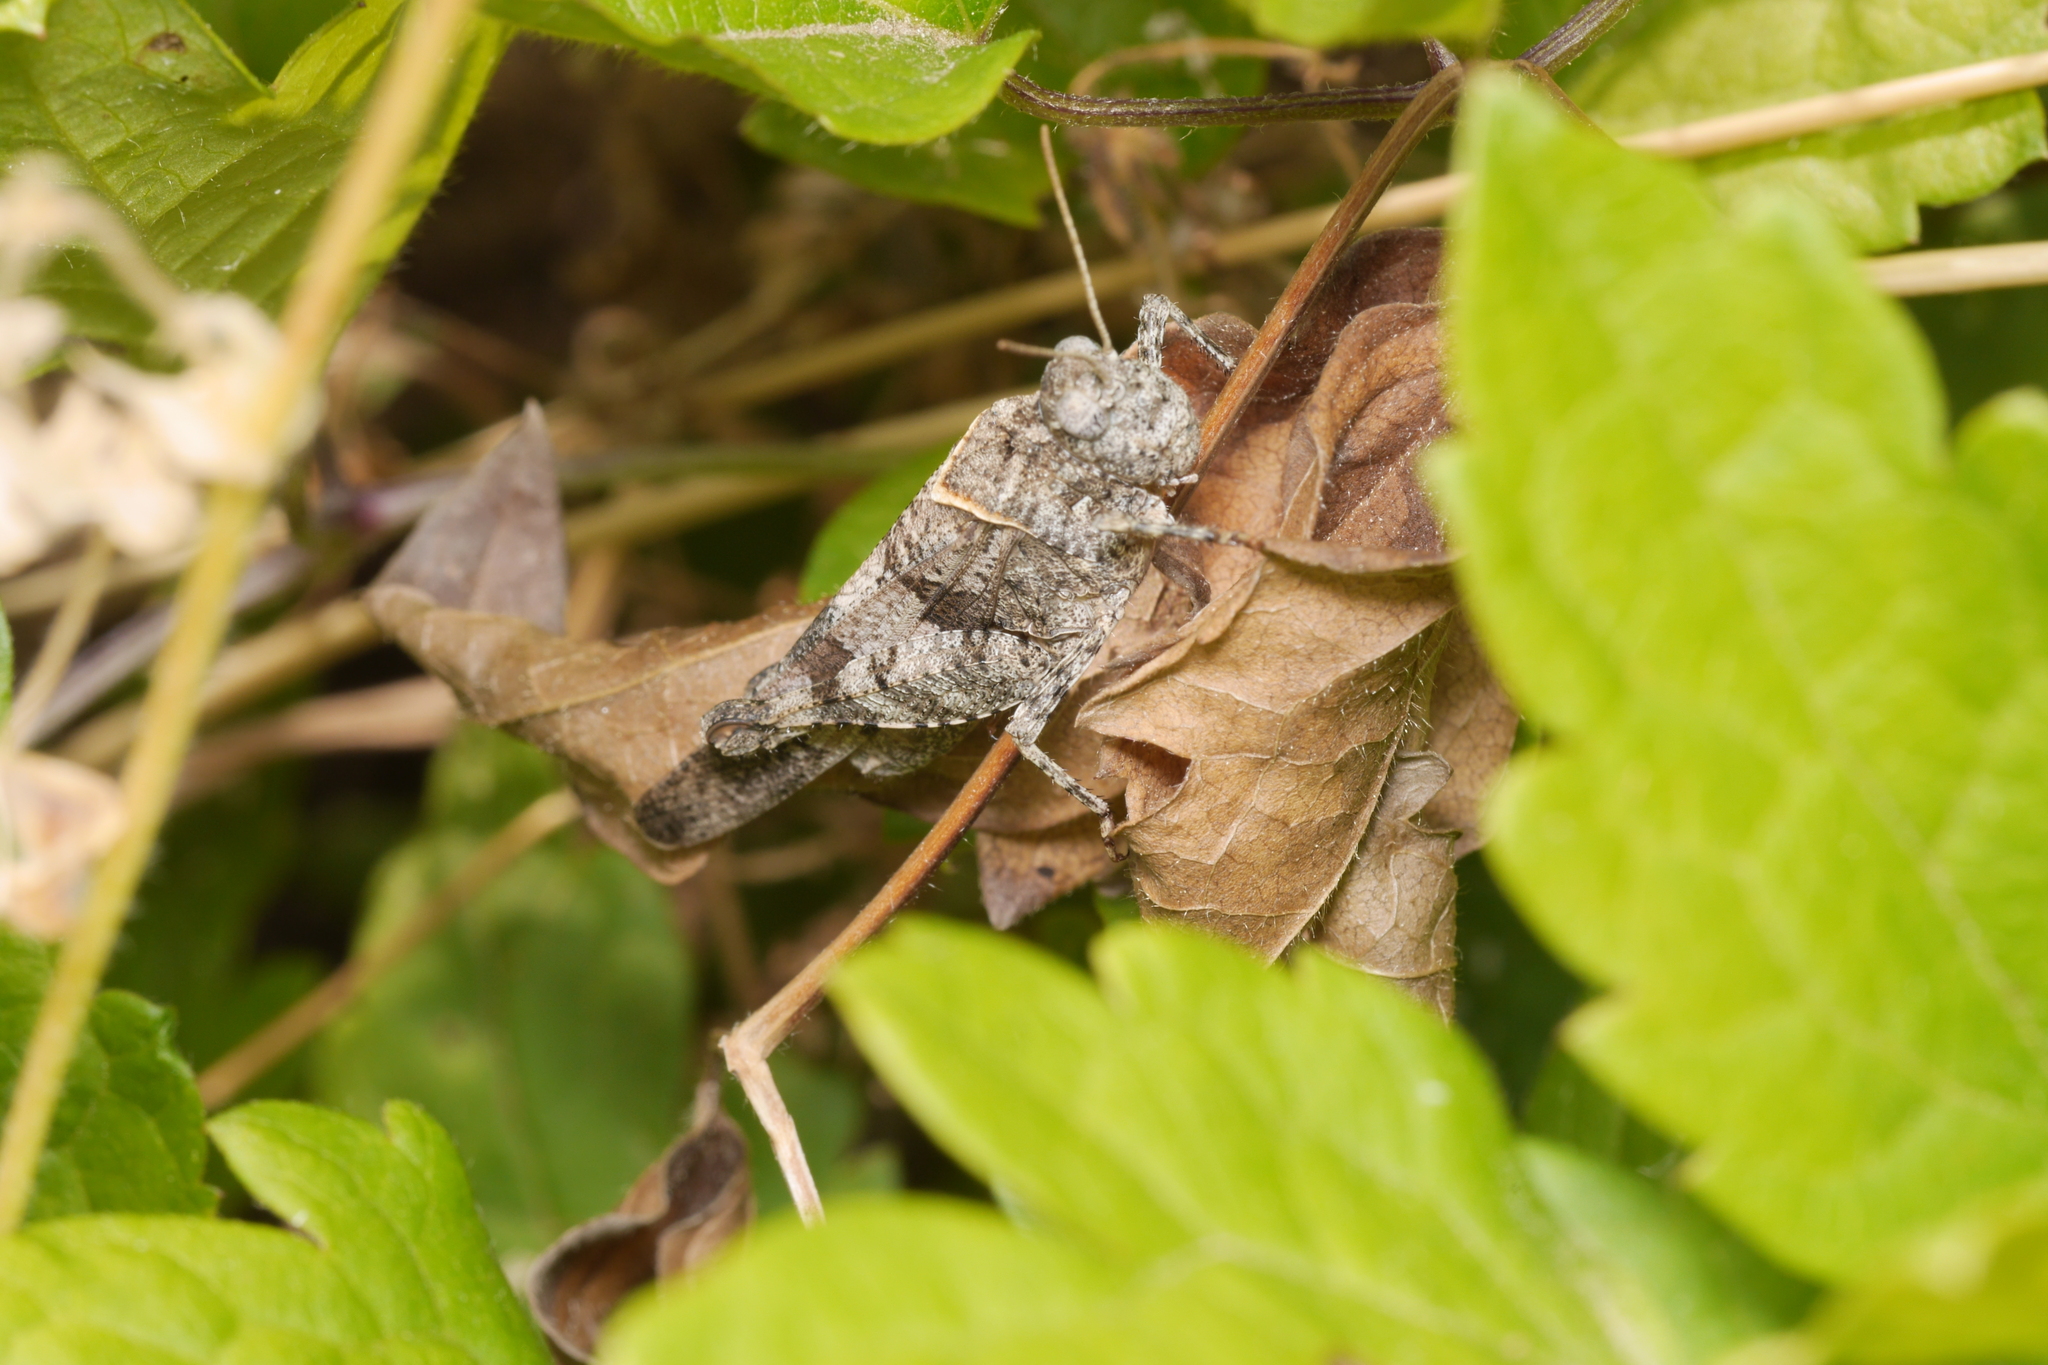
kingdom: Animalia
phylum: Arthropoda
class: Insecta
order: Orthoptera
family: Acrididae
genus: Oedipoda
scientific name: Oedipoda caerulescens
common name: Blue-winged grasshopper
